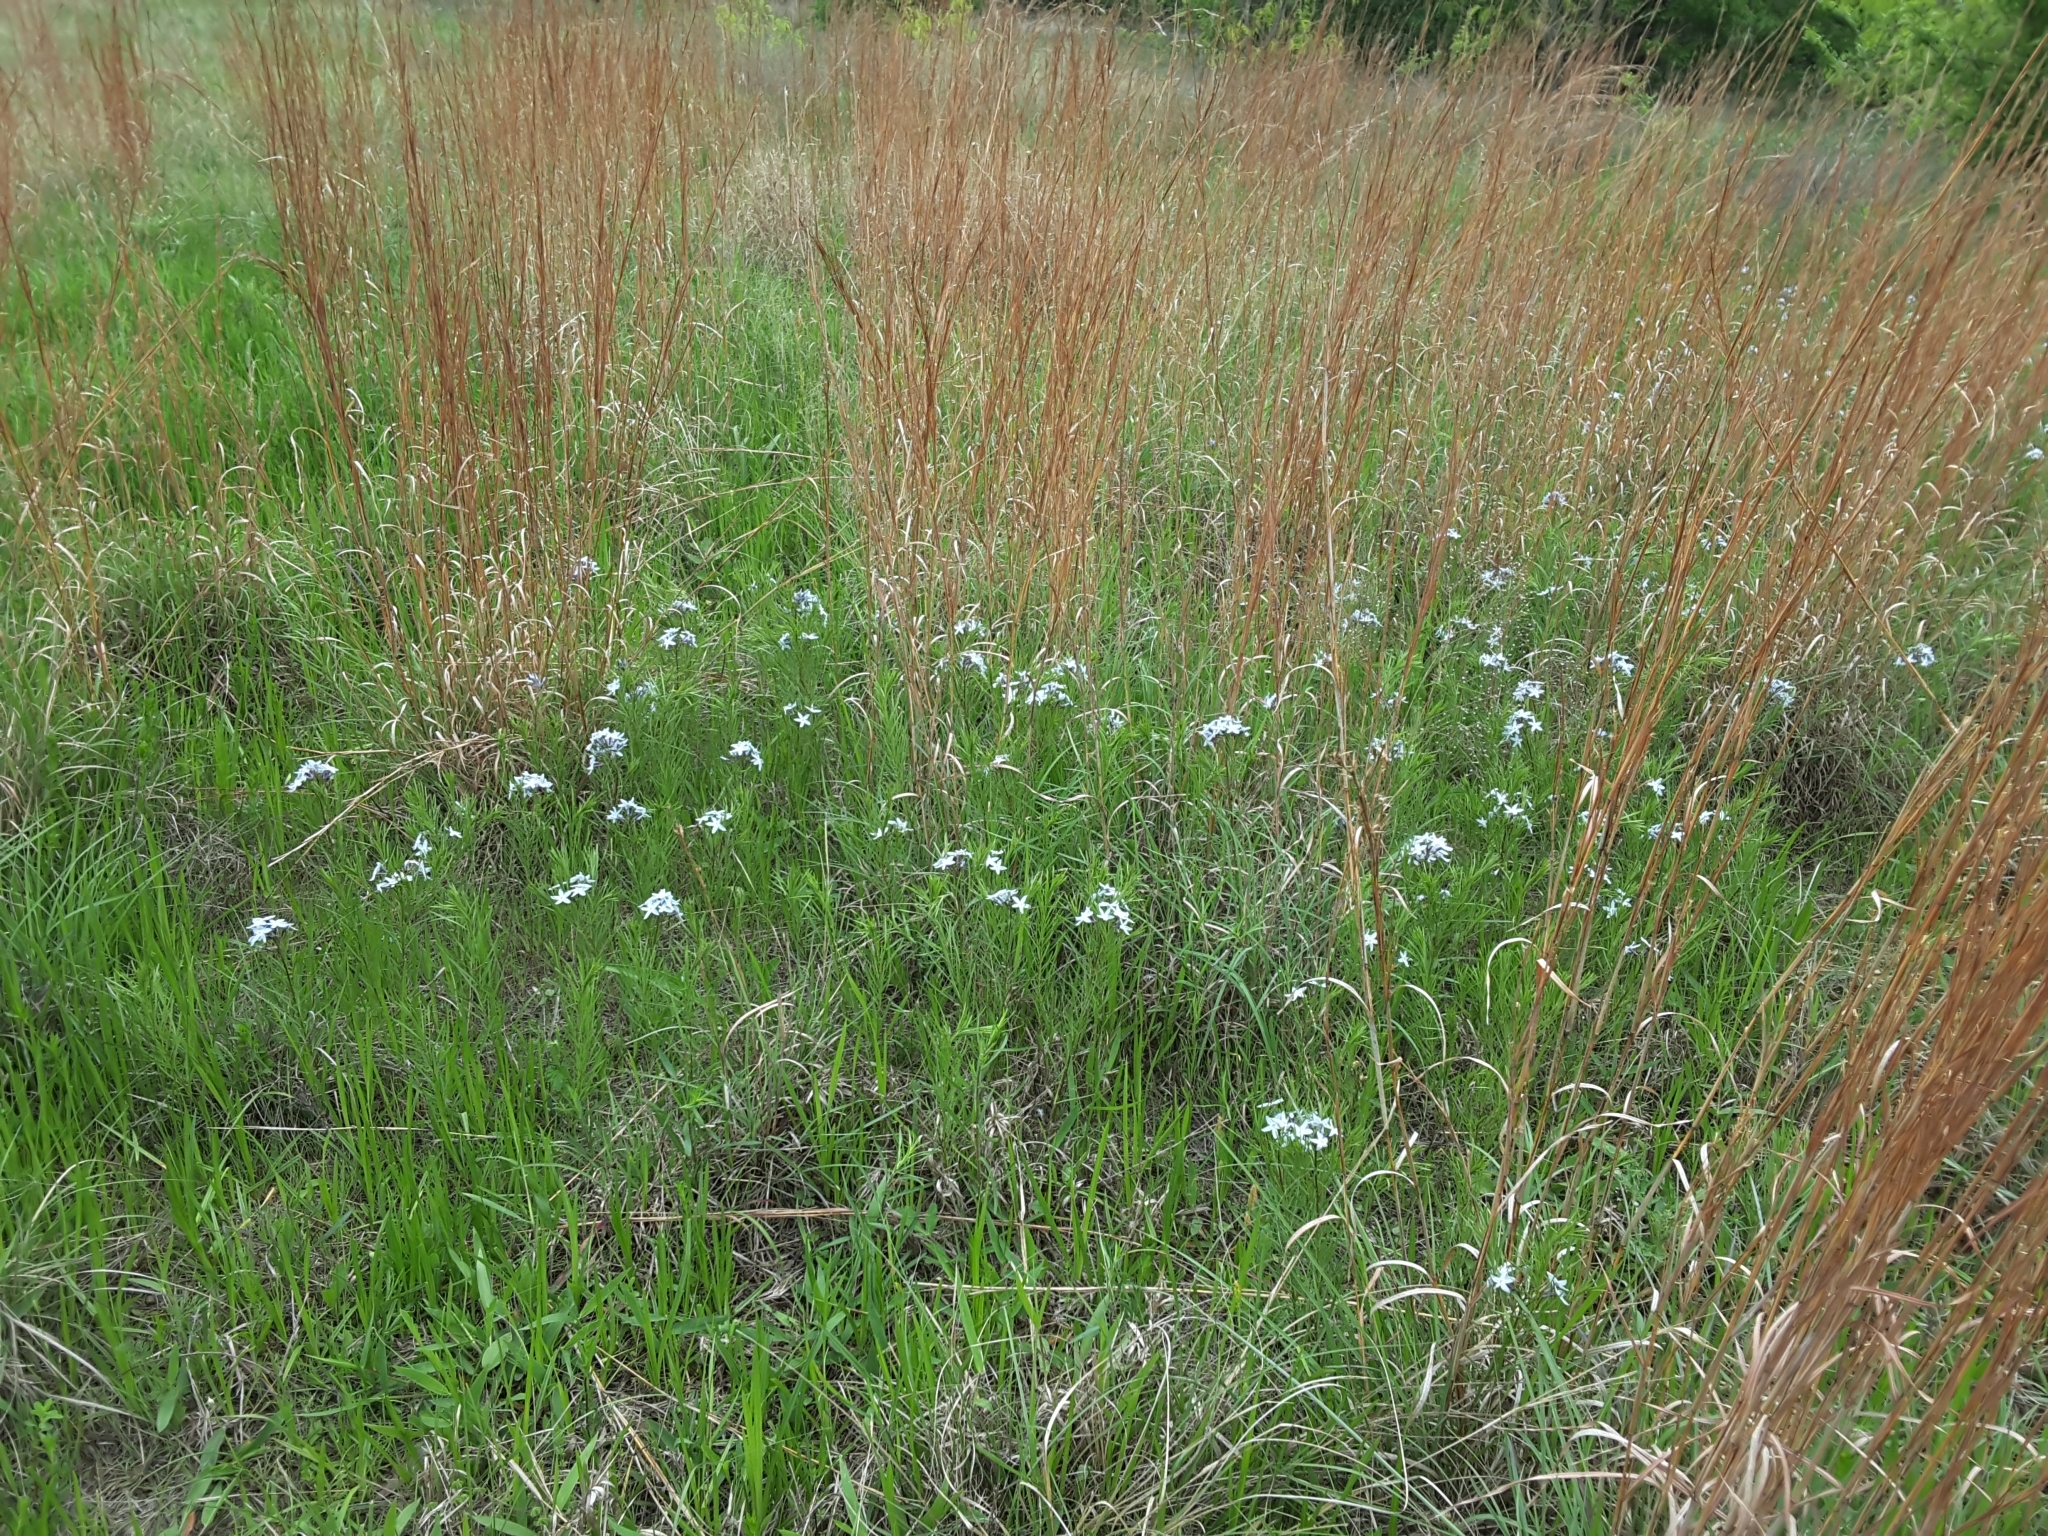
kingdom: Plantae
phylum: Tracheophyta
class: Liliopsida
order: Poales
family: Poaceae
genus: Schizachyrium
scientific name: Schizachyrium scoparium
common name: Little bluestem
